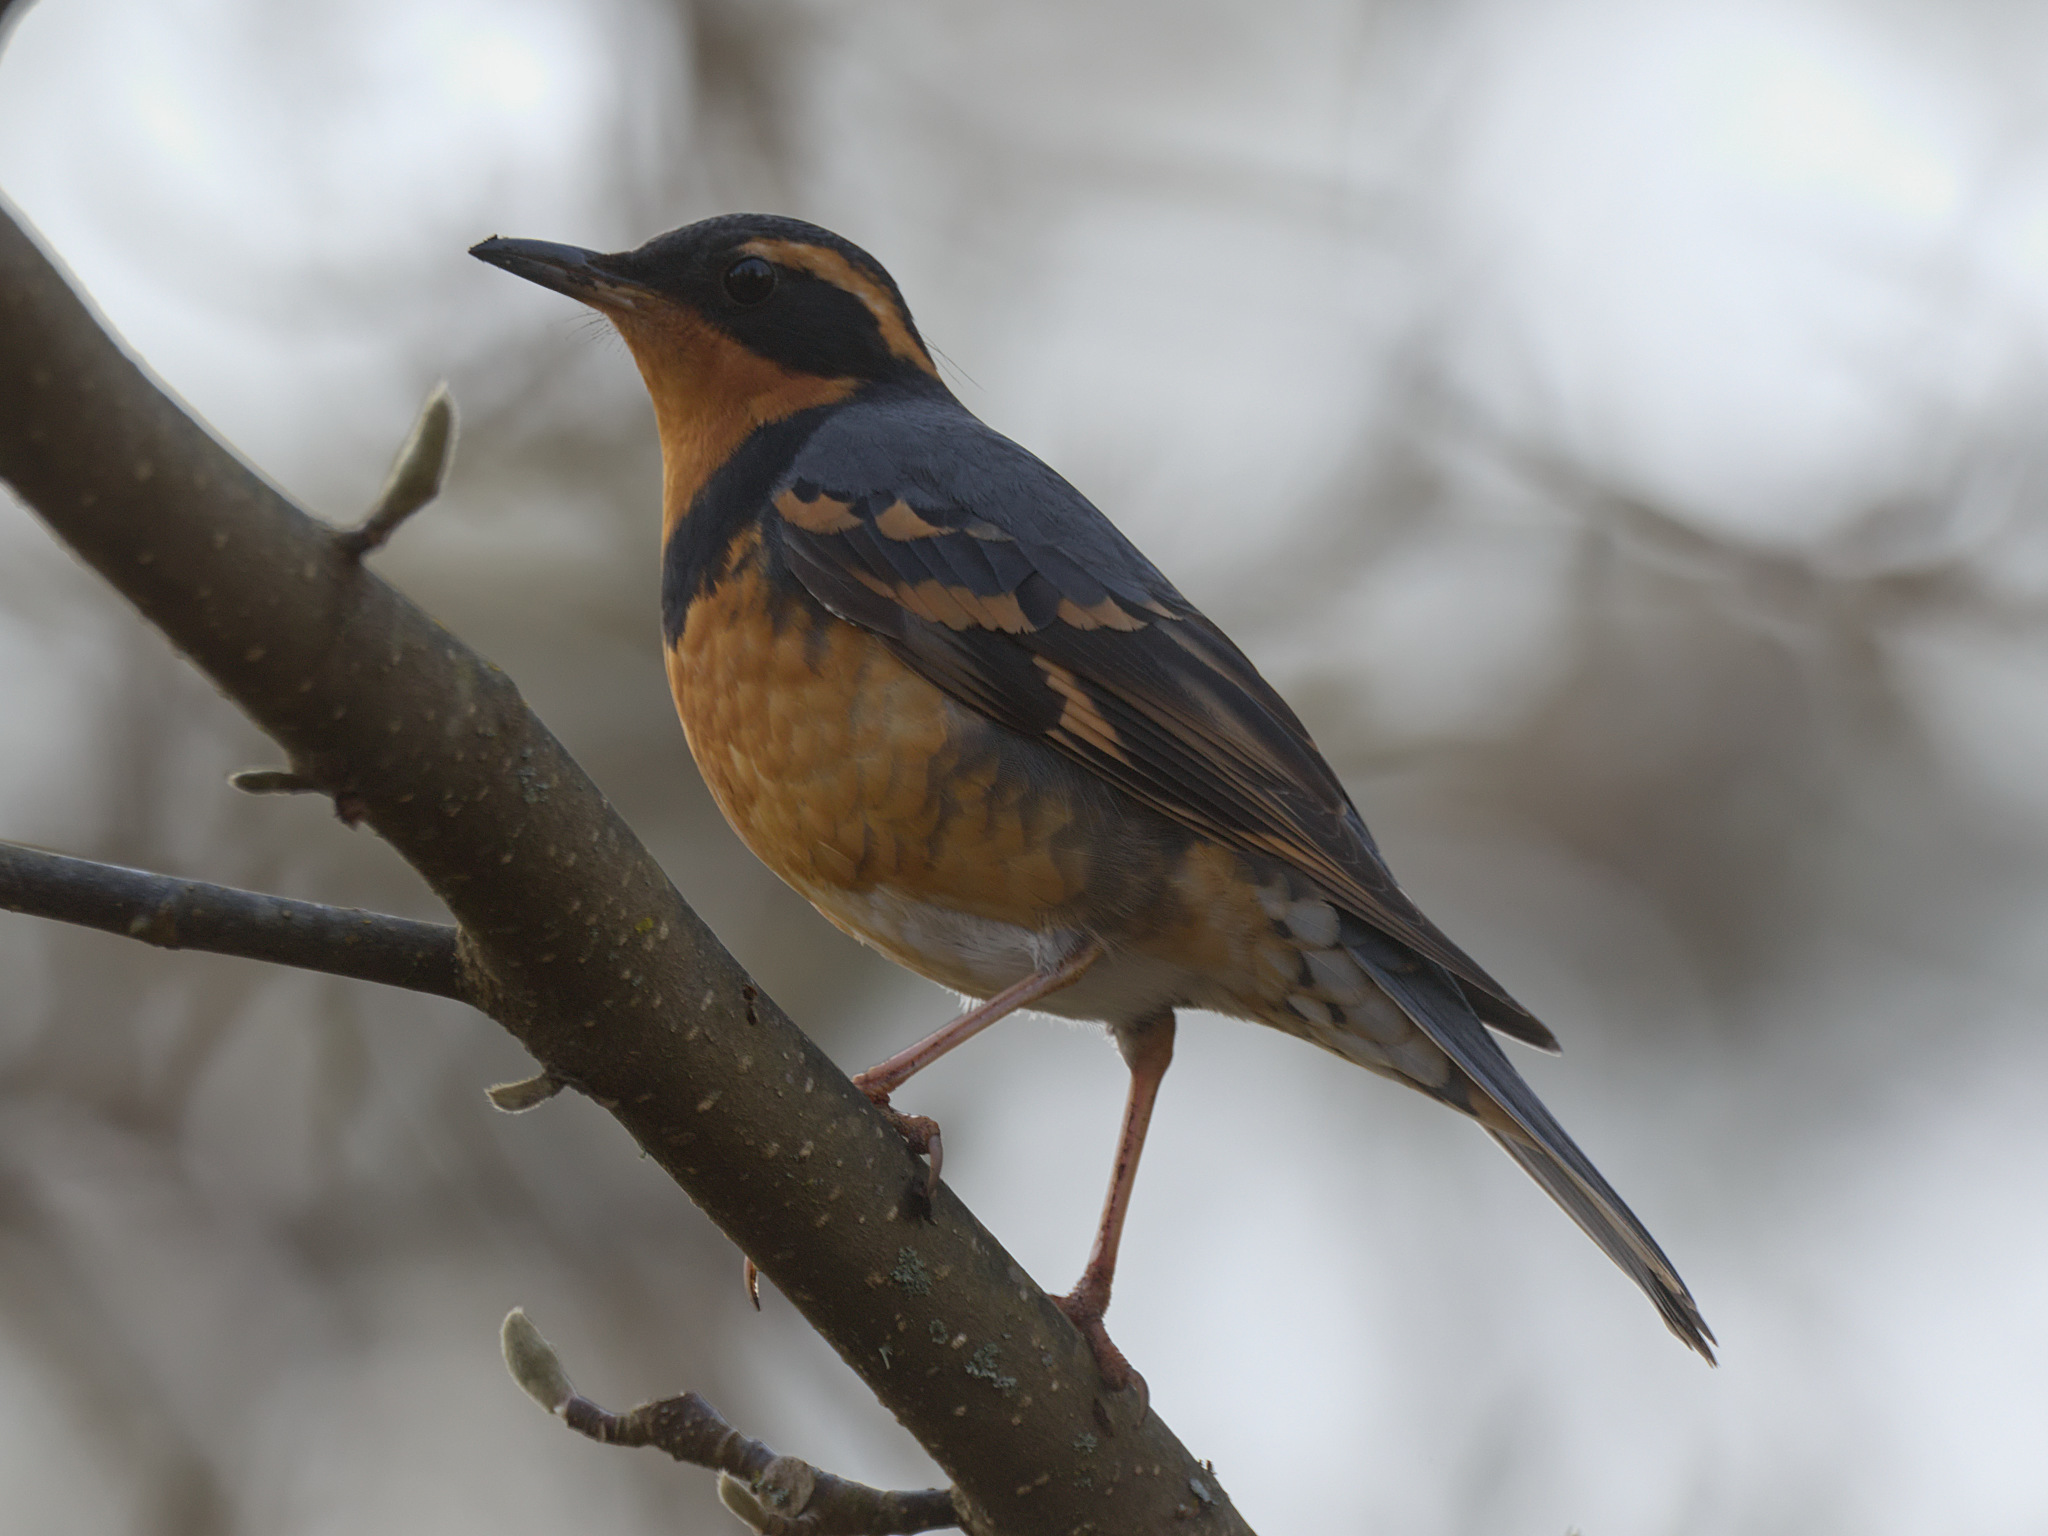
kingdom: Animalia
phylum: Chordata
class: Aves
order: Passeriformes
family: Turdidae
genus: Ixoreus
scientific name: Ixoreus naevius
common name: Varied thrush
